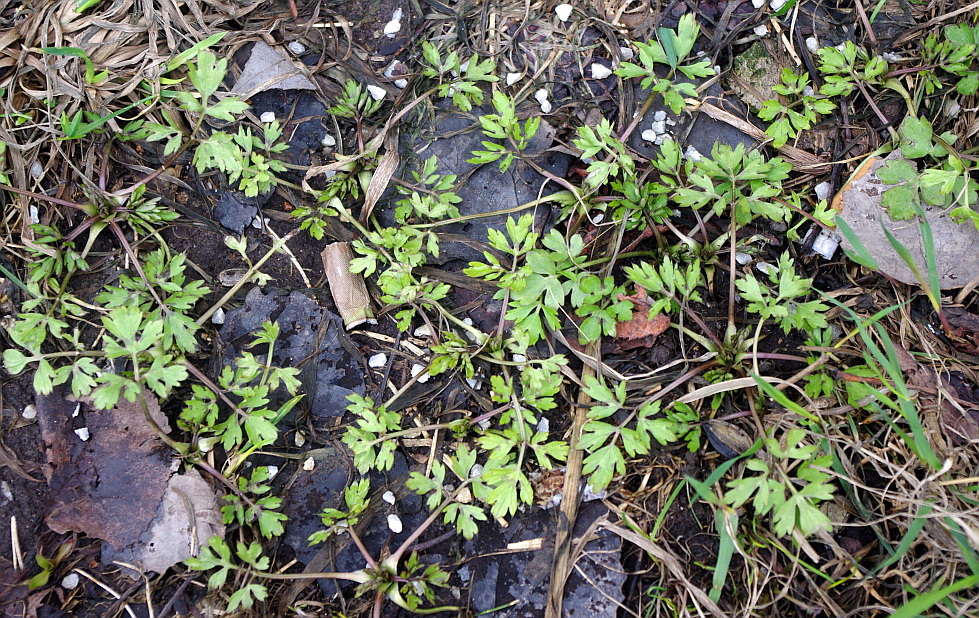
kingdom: Plantae
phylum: Tracheophyta
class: Magnoliopsida
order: Ranunculales
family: Ranunculaceae
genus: Ranunculus
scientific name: Ranunculus repens
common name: Creeping buttercup
